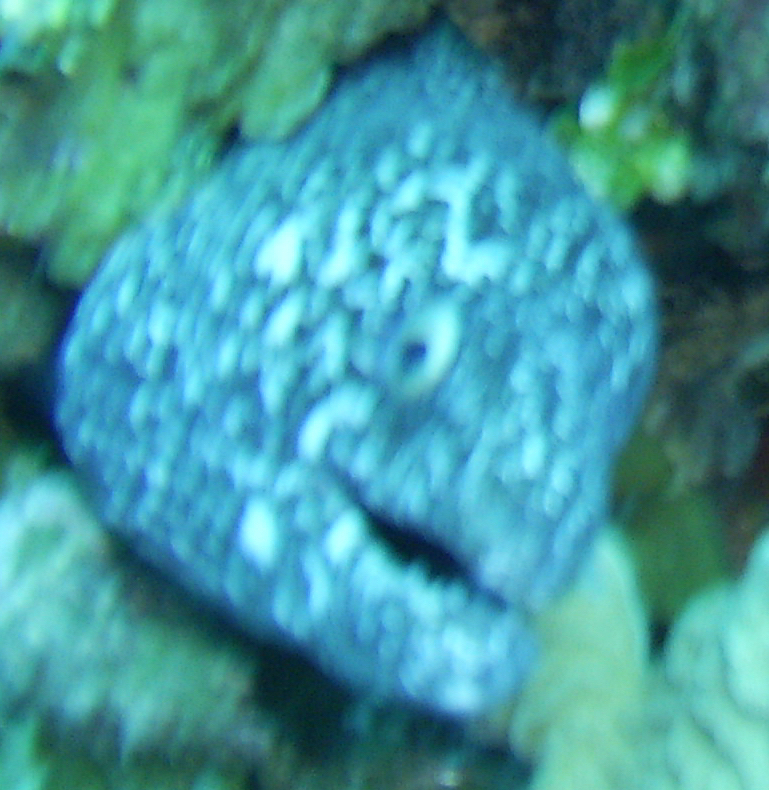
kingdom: Animalia
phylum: Chordata
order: Anguilliformes
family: Muraenidae
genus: Gymnothorax
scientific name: Gymnothorax moringa
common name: Spotted moray
